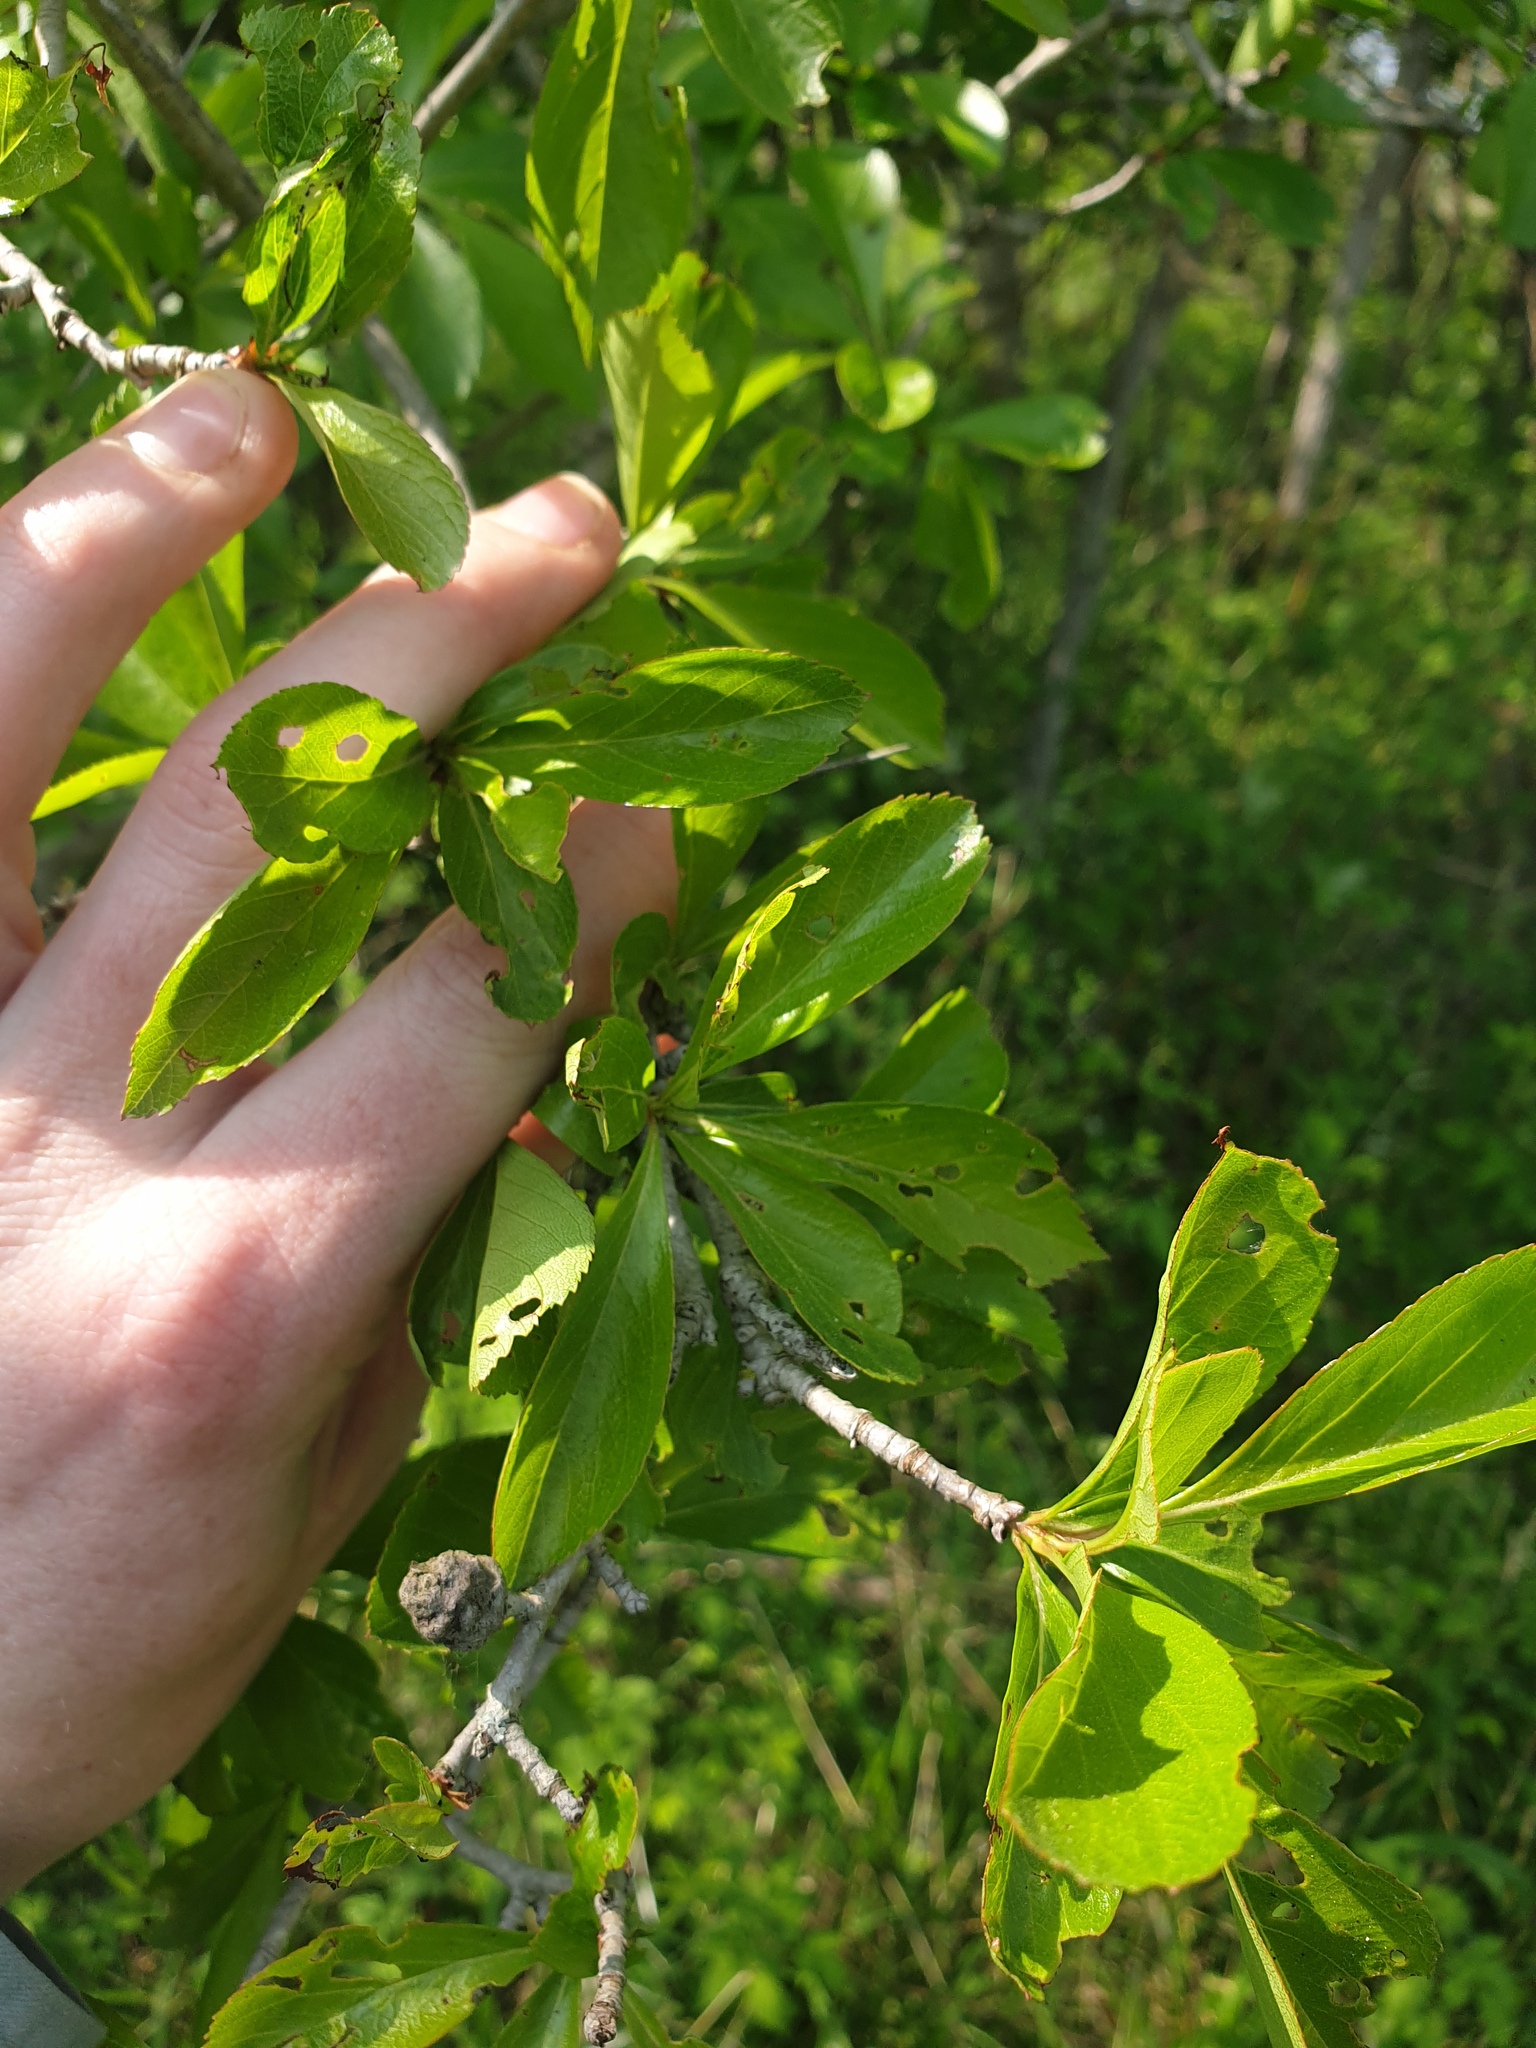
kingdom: Plantae
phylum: Tracheophyta
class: Magnoliopsida
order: Rosales
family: Rosaceae
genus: Crataegus
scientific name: Crataegus punctata
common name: Dotted hawthorn
